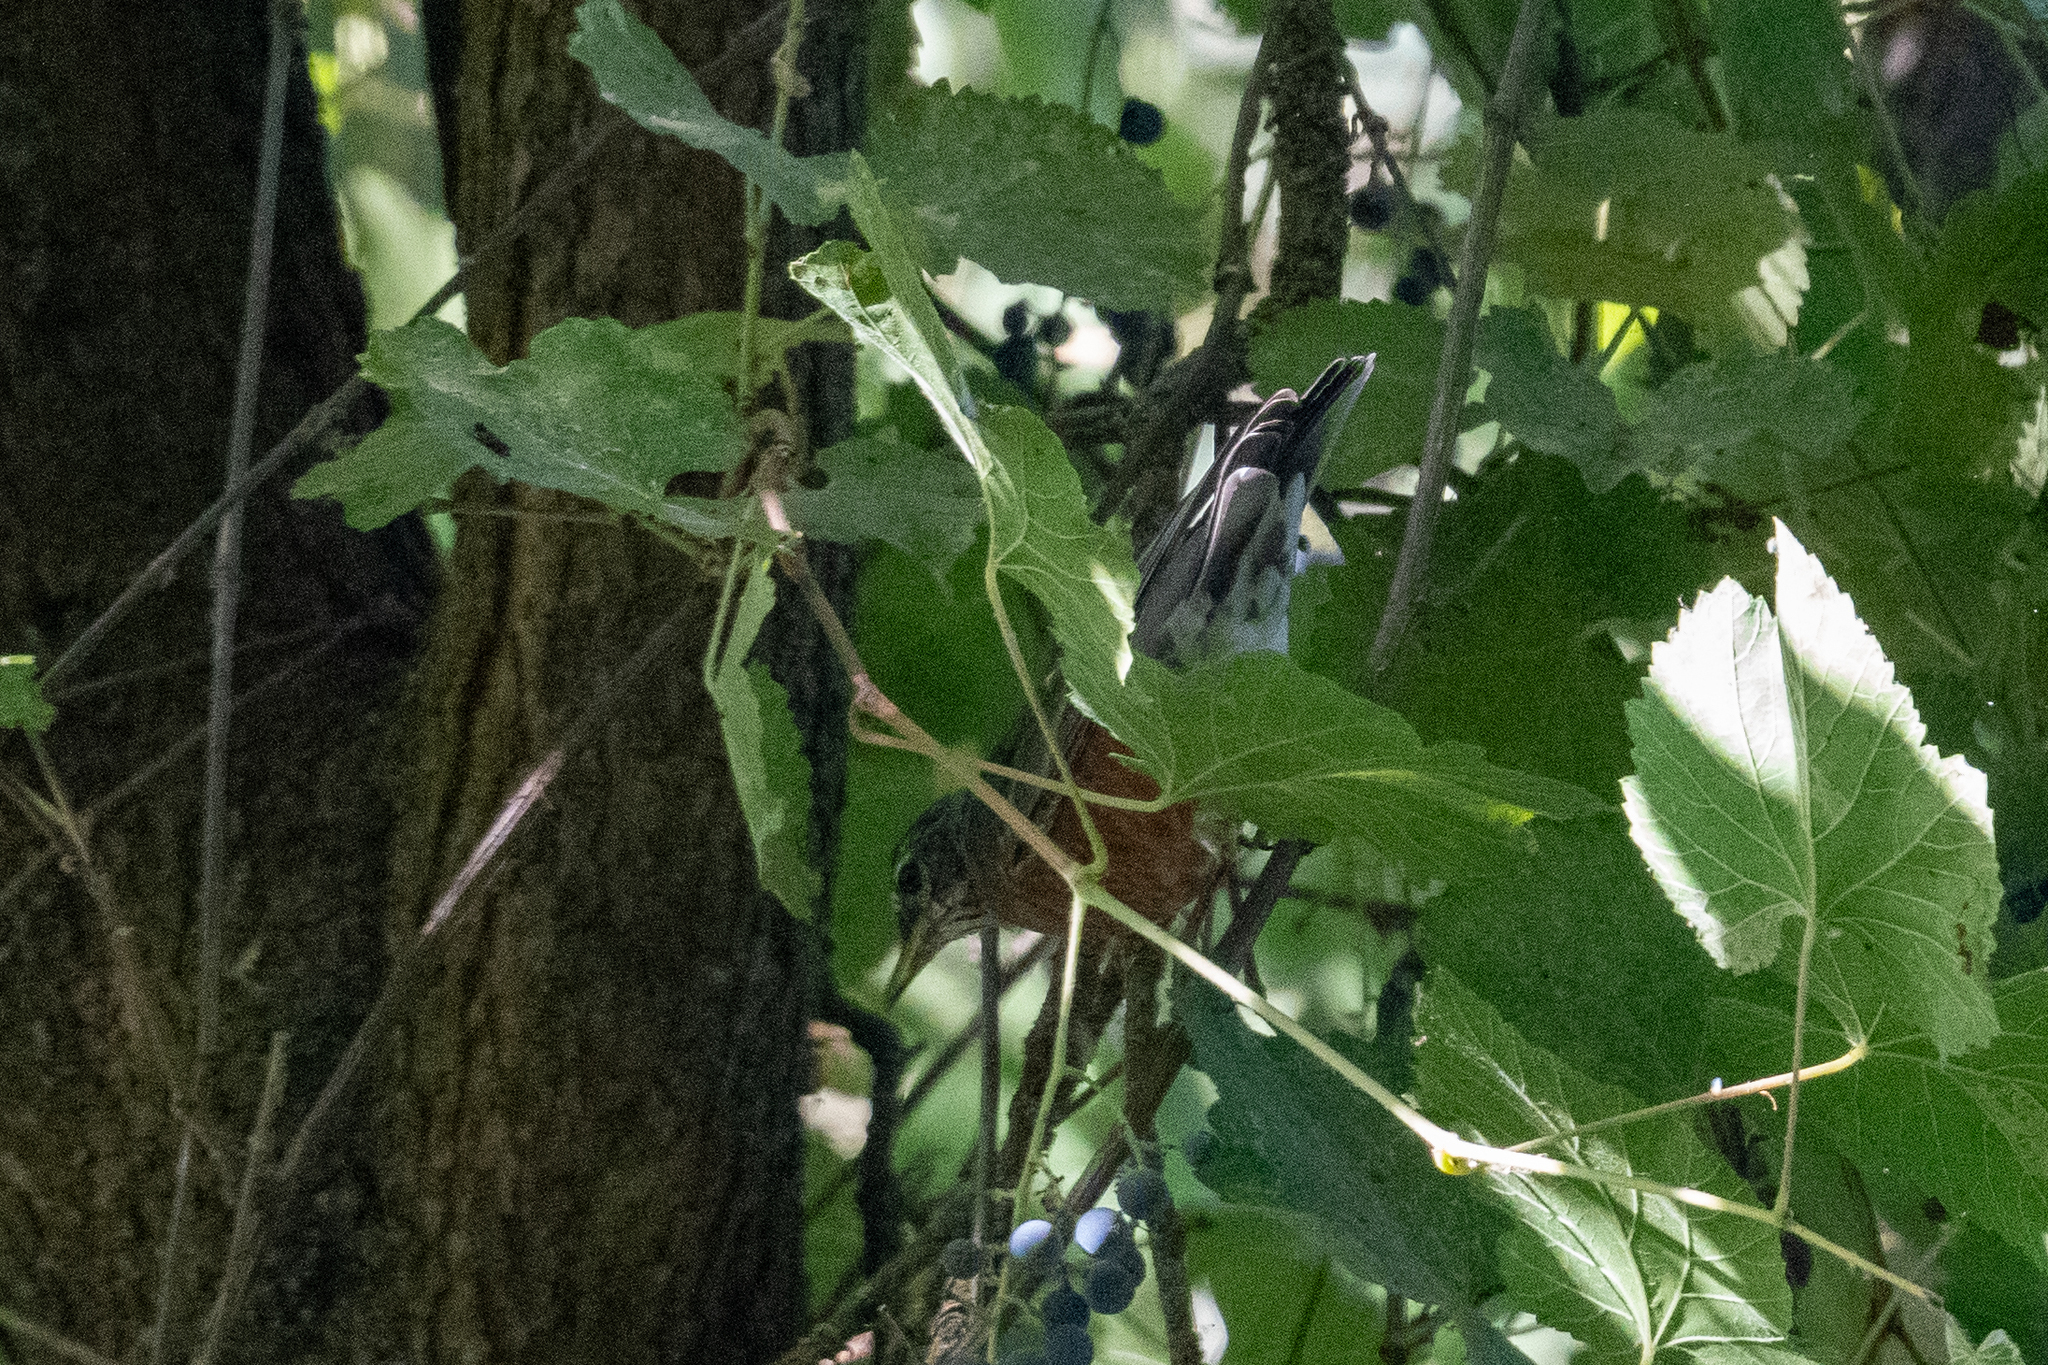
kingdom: Animalia
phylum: Chordata
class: Aves
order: Passeriformes
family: Turdidae
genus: Turdus
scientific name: Turdus migratorius
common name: American robin
